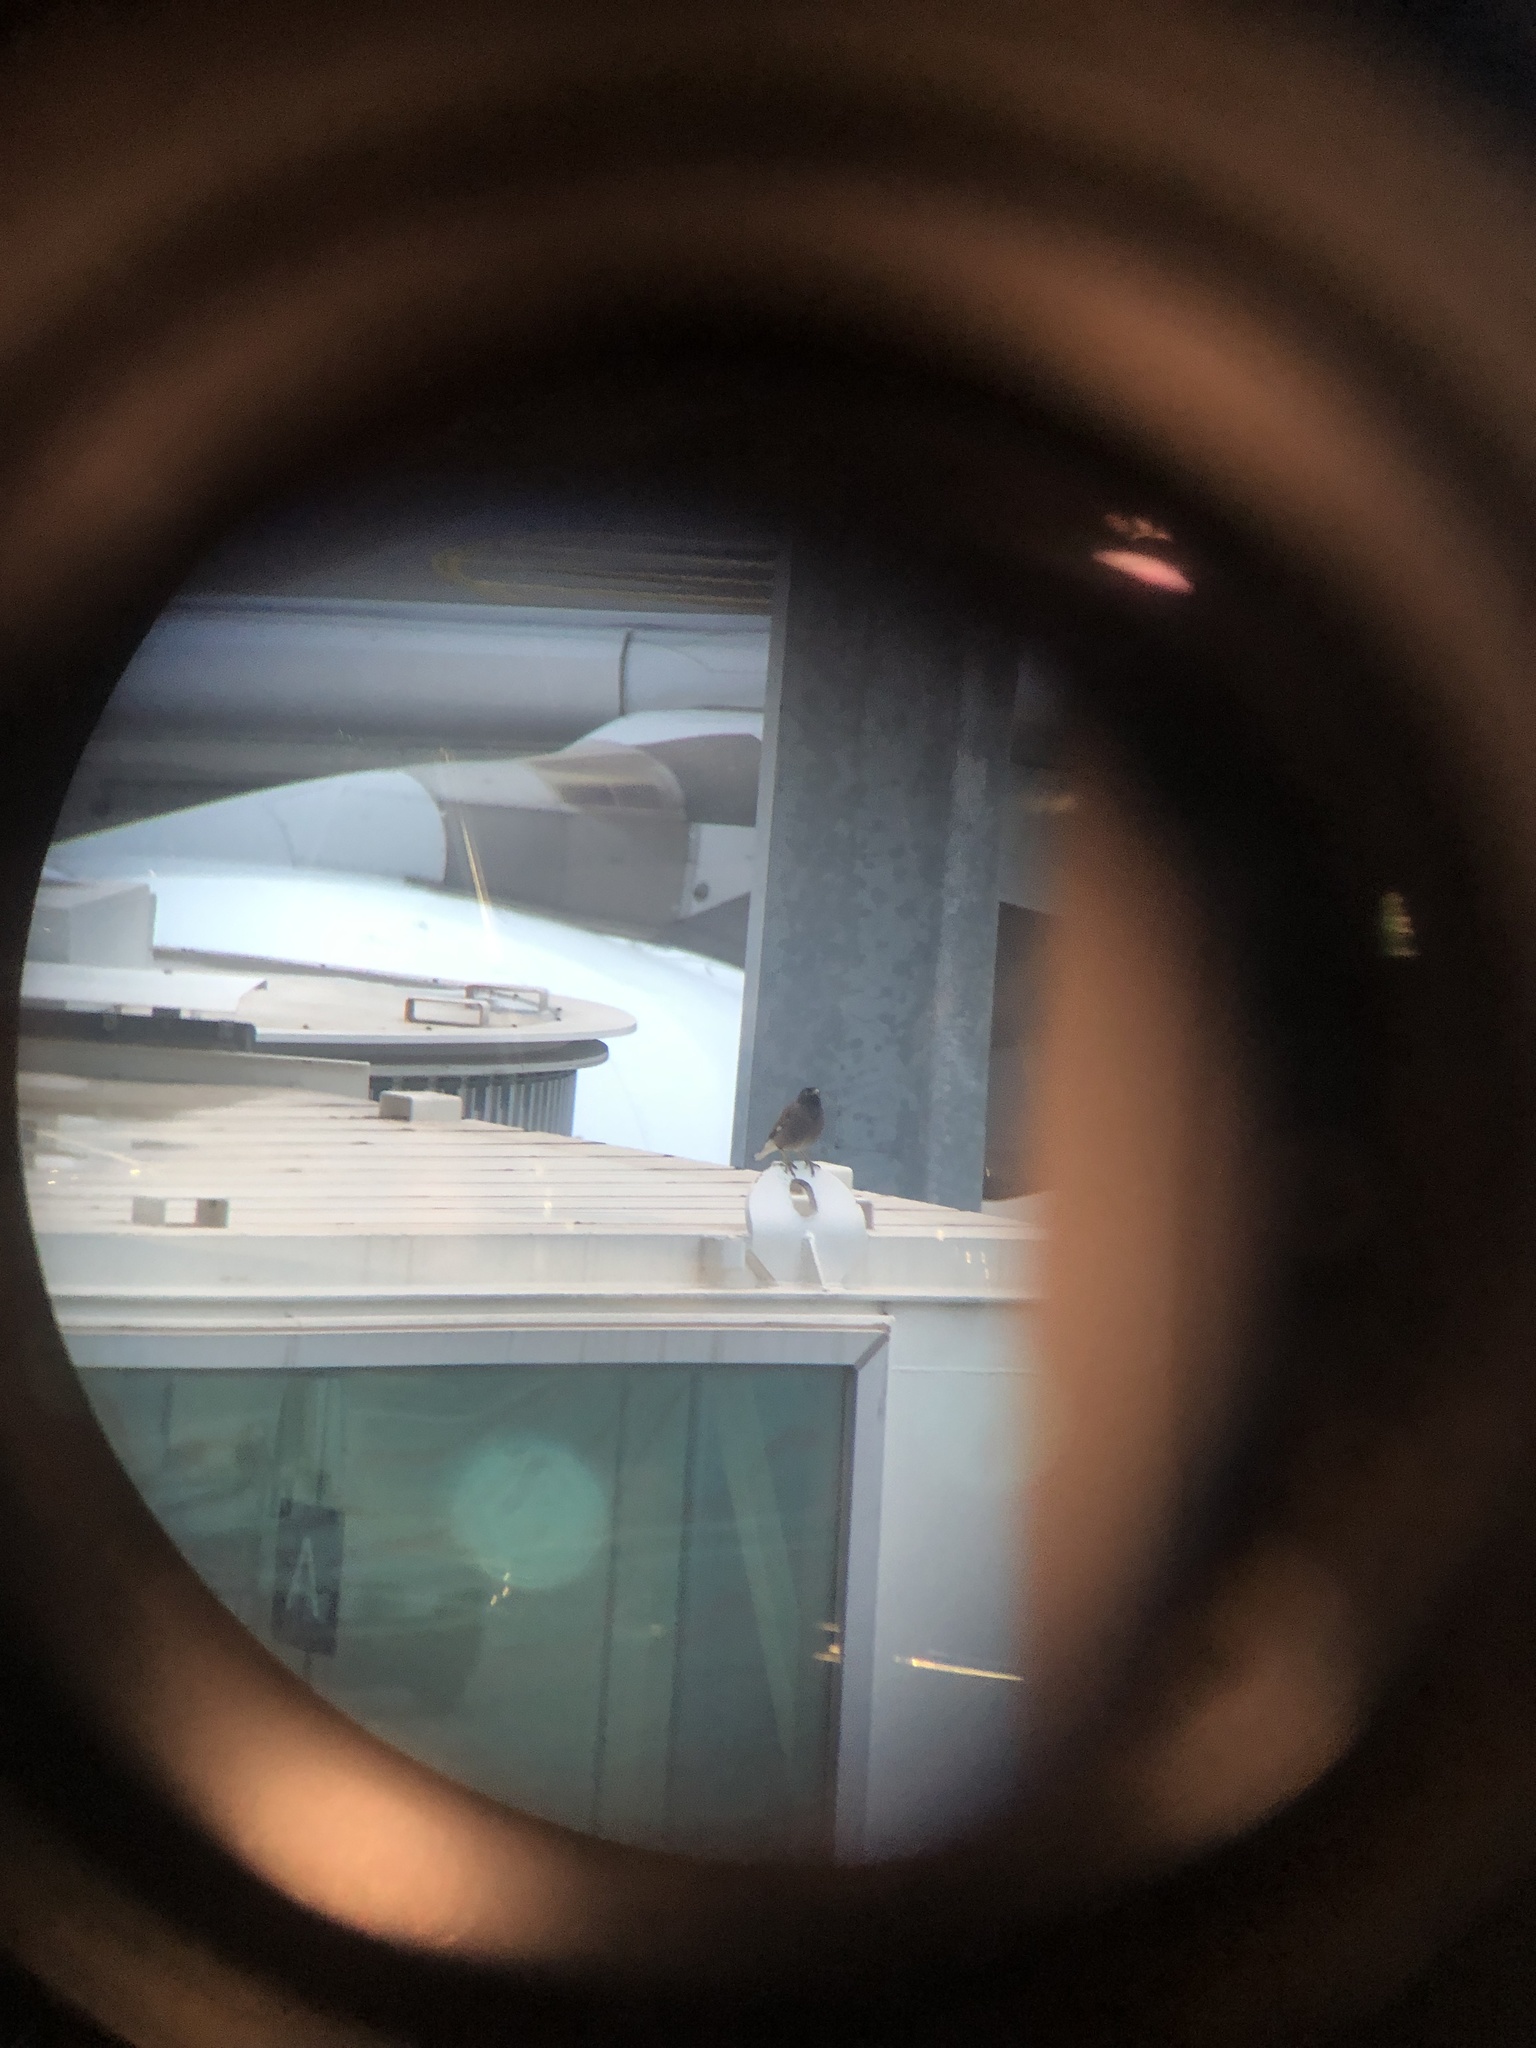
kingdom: Animalia
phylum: Chordata
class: Aves
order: Passeriformes
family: Sturnidae
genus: Acridotheres
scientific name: Acridotheres tristis
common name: Common myna
